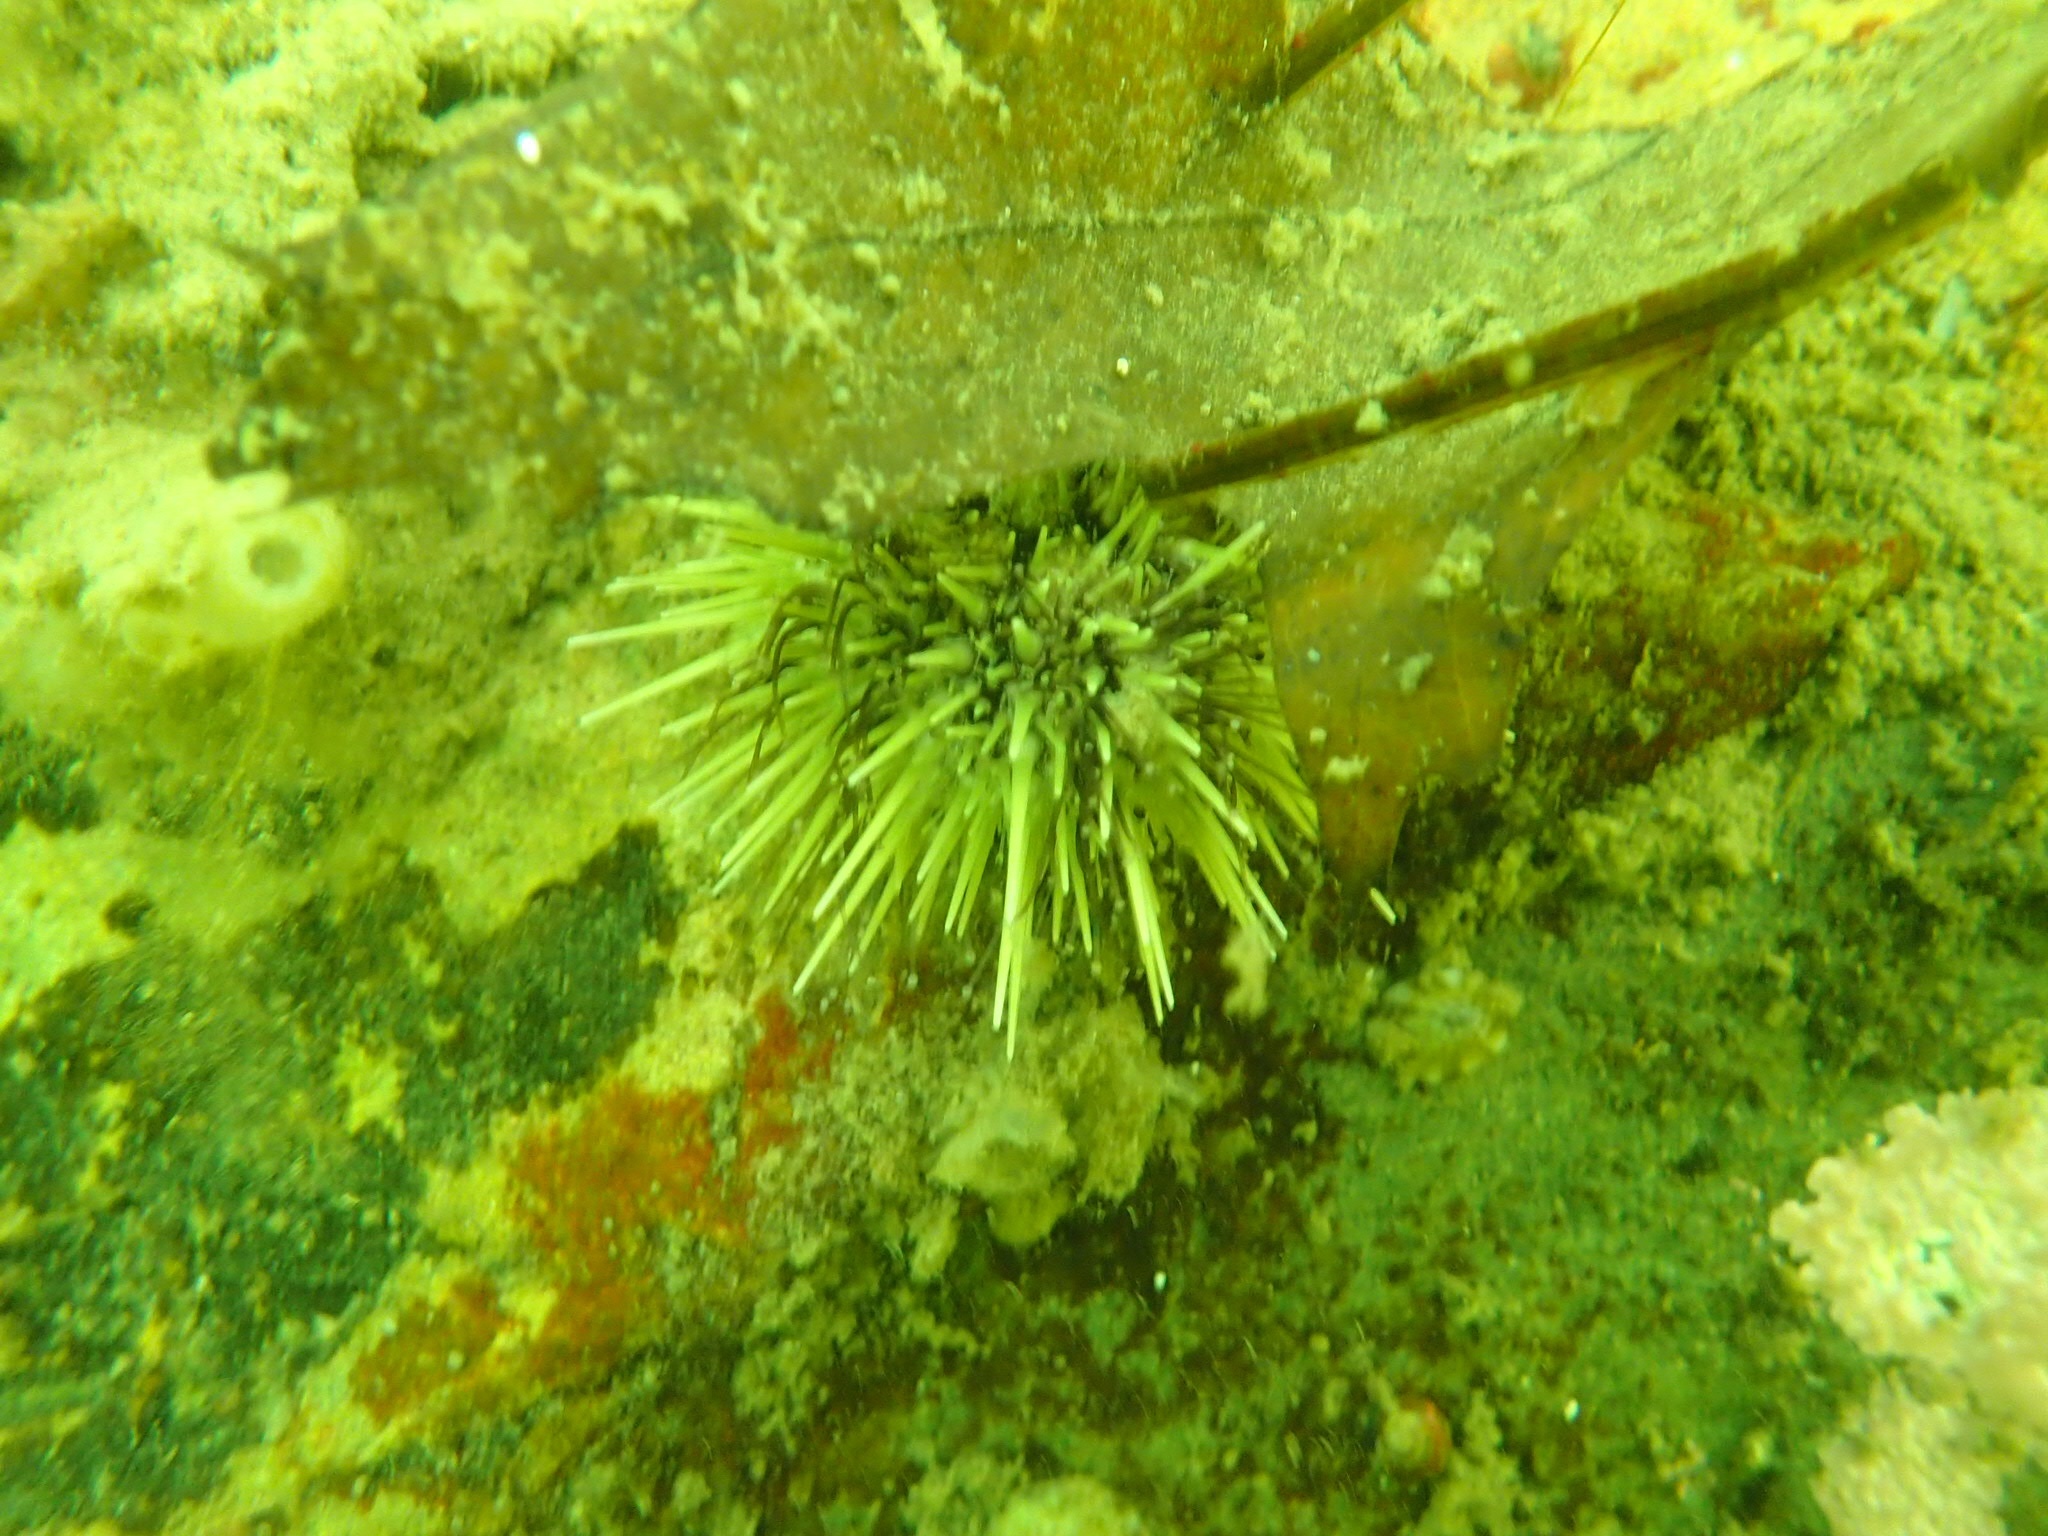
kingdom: Animalia
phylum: Echinodermata
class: Echinoidea
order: Camarodonta
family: Strongylocentrotidae
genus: Strongylocentrotus
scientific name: Strongylocentrotus droebachiensis
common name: Northern sea urchin
